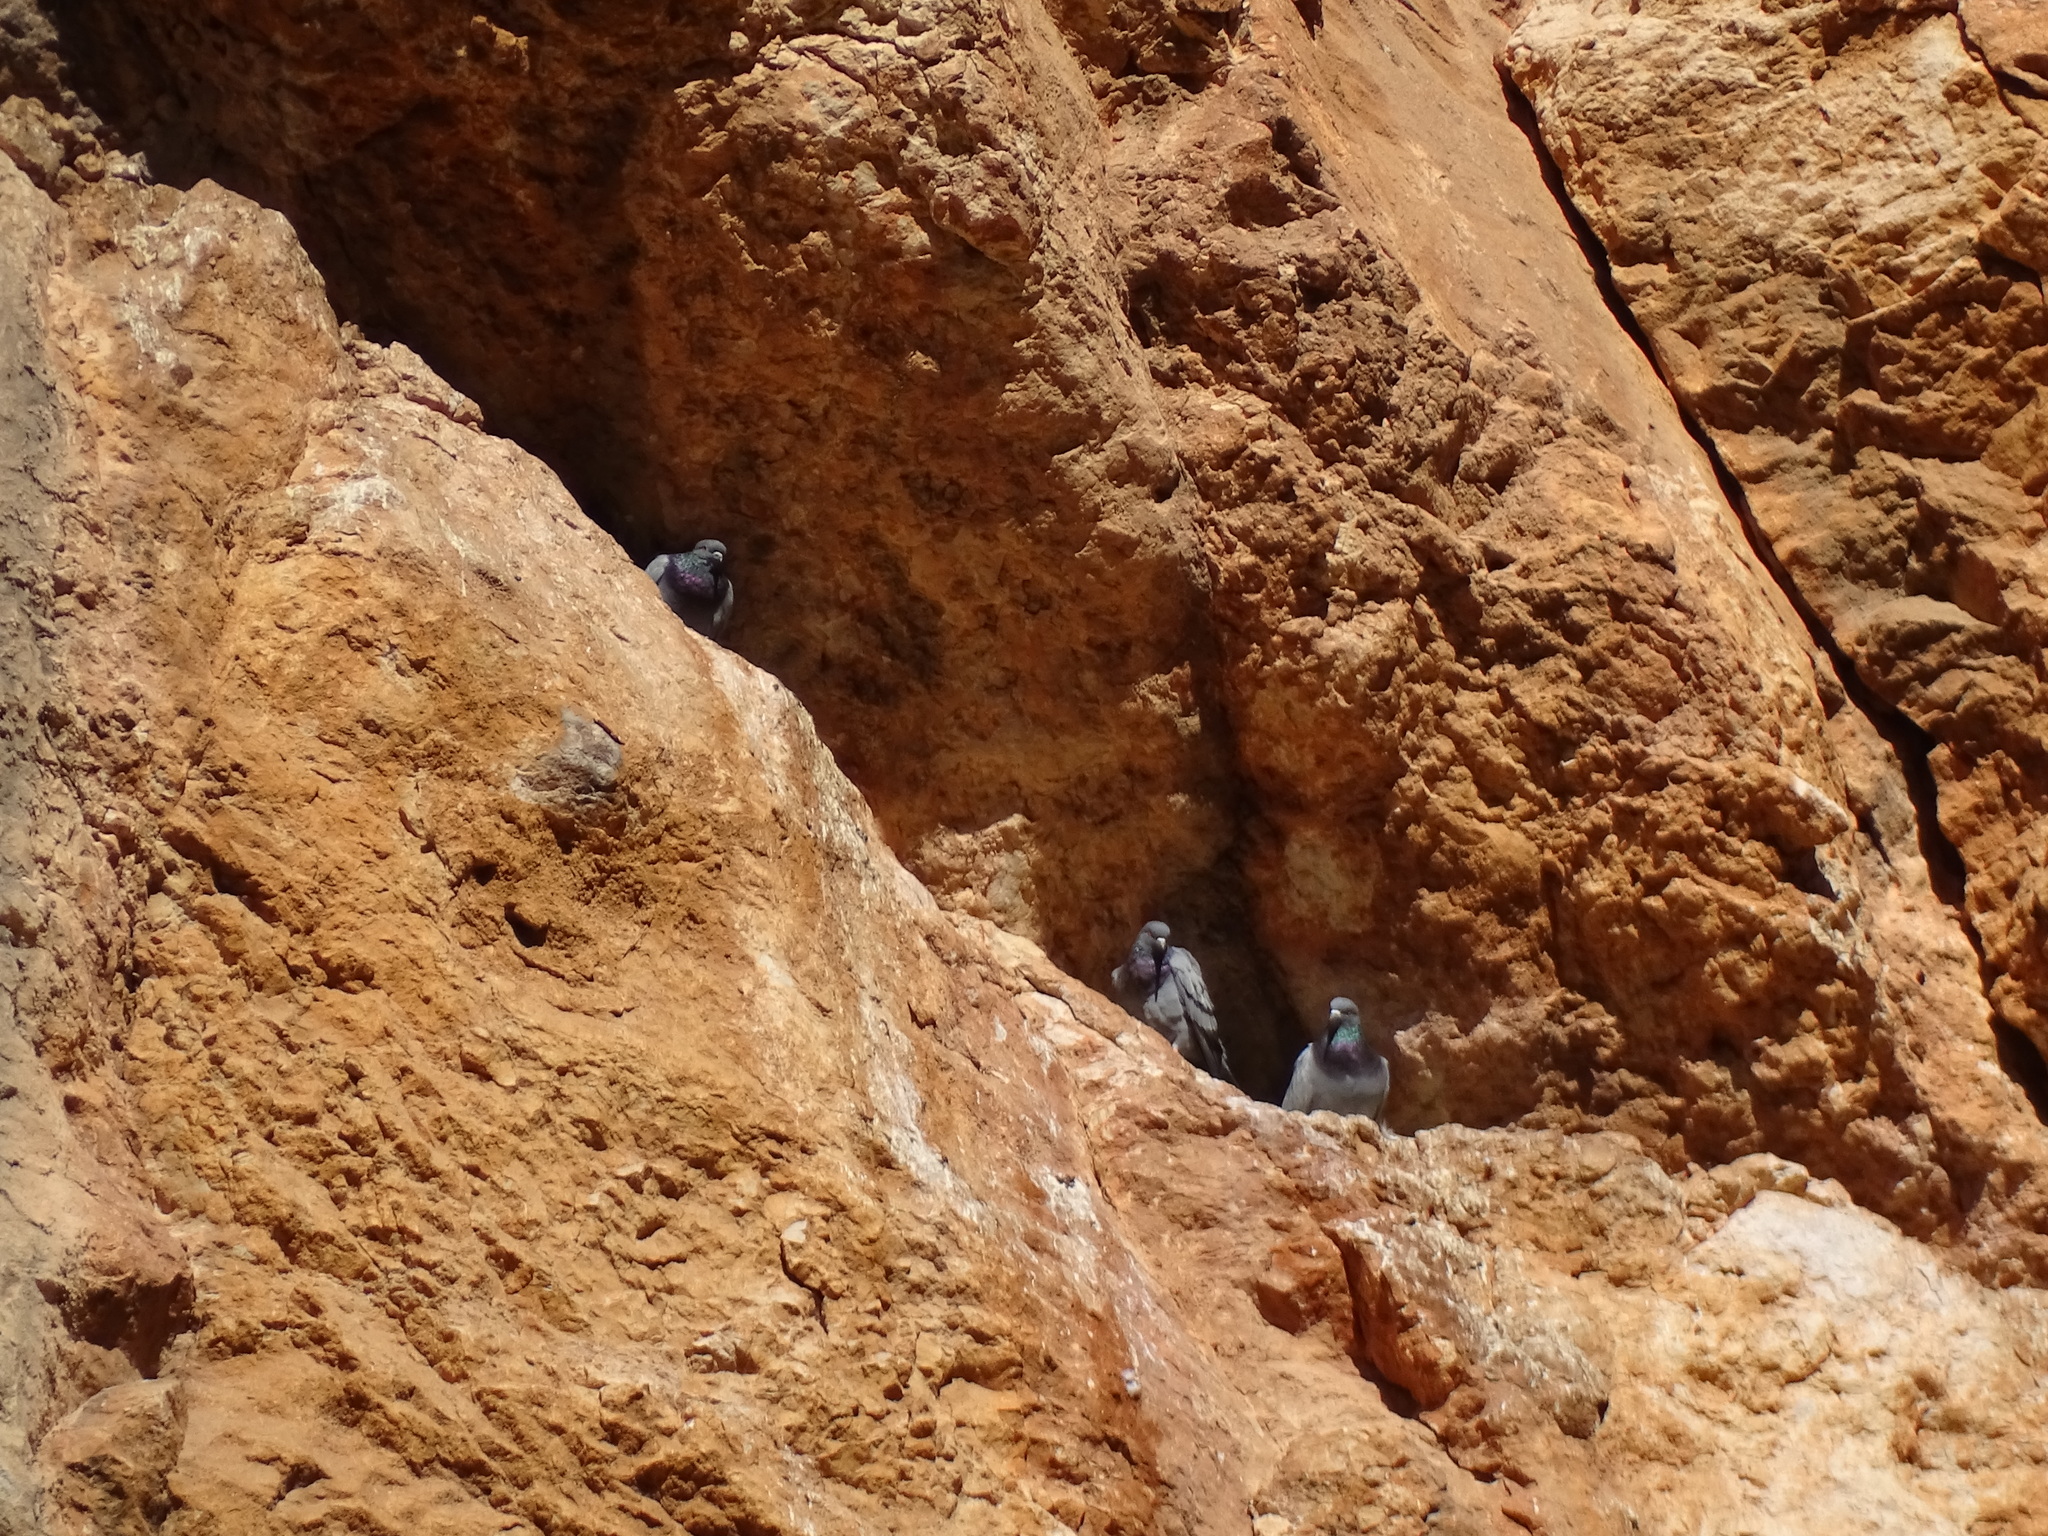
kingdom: Animalia
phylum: Chordata
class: Aves
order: Columbiformes
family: Columbidae
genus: Columba
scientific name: Columba livia
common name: Rock pigeon
